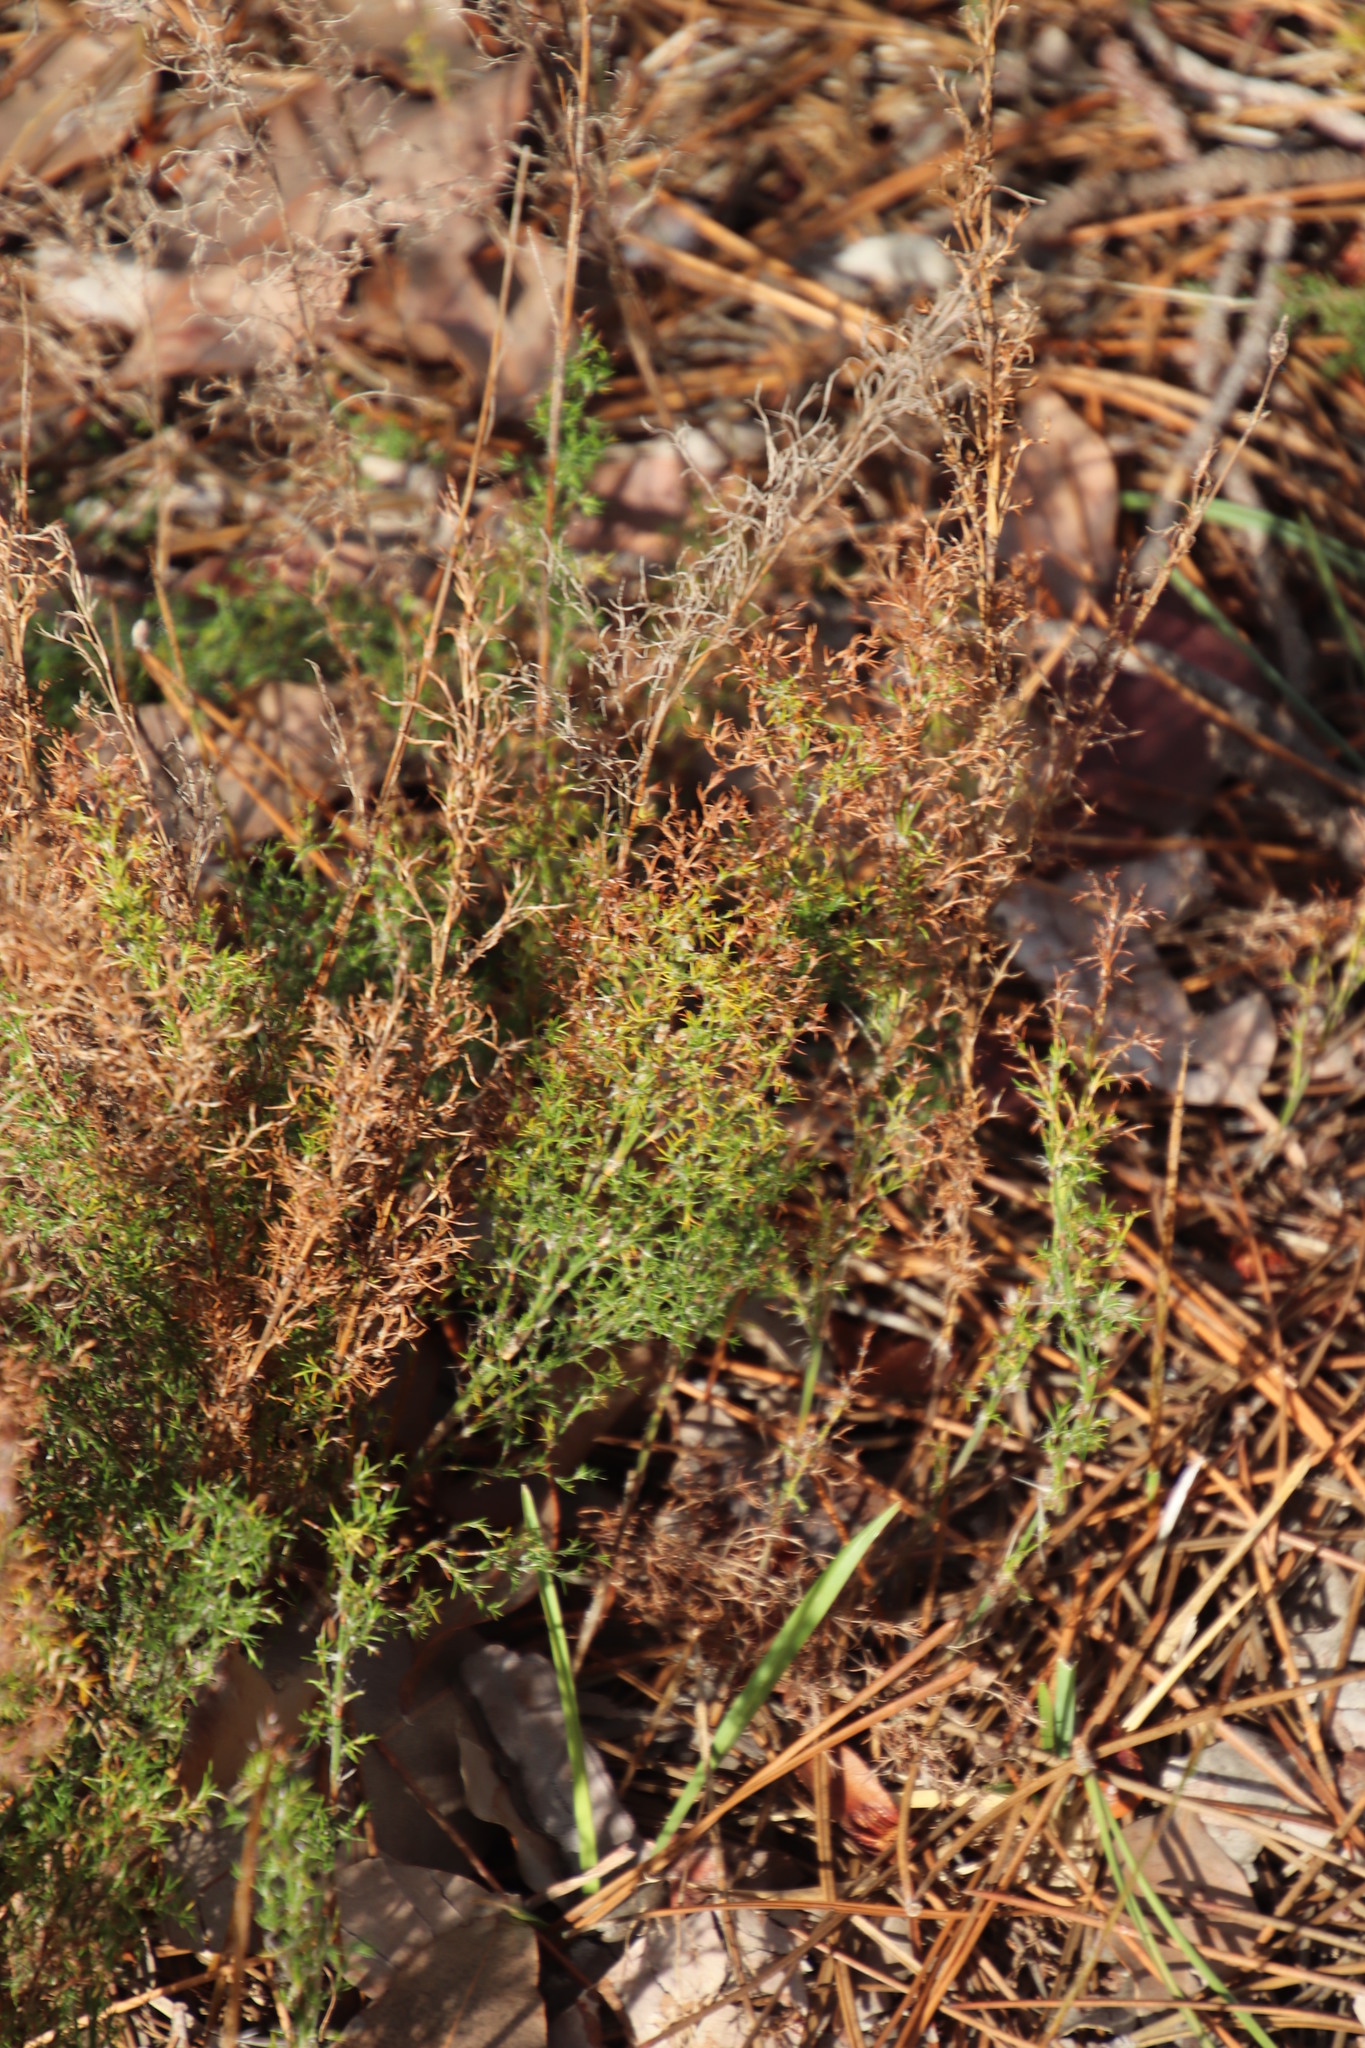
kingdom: Plantae
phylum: Tracheophyta
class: Liliopsida
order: Poales
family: Restionaceae
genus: Thamnochortus
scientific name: Thamnochortus fruticosus
